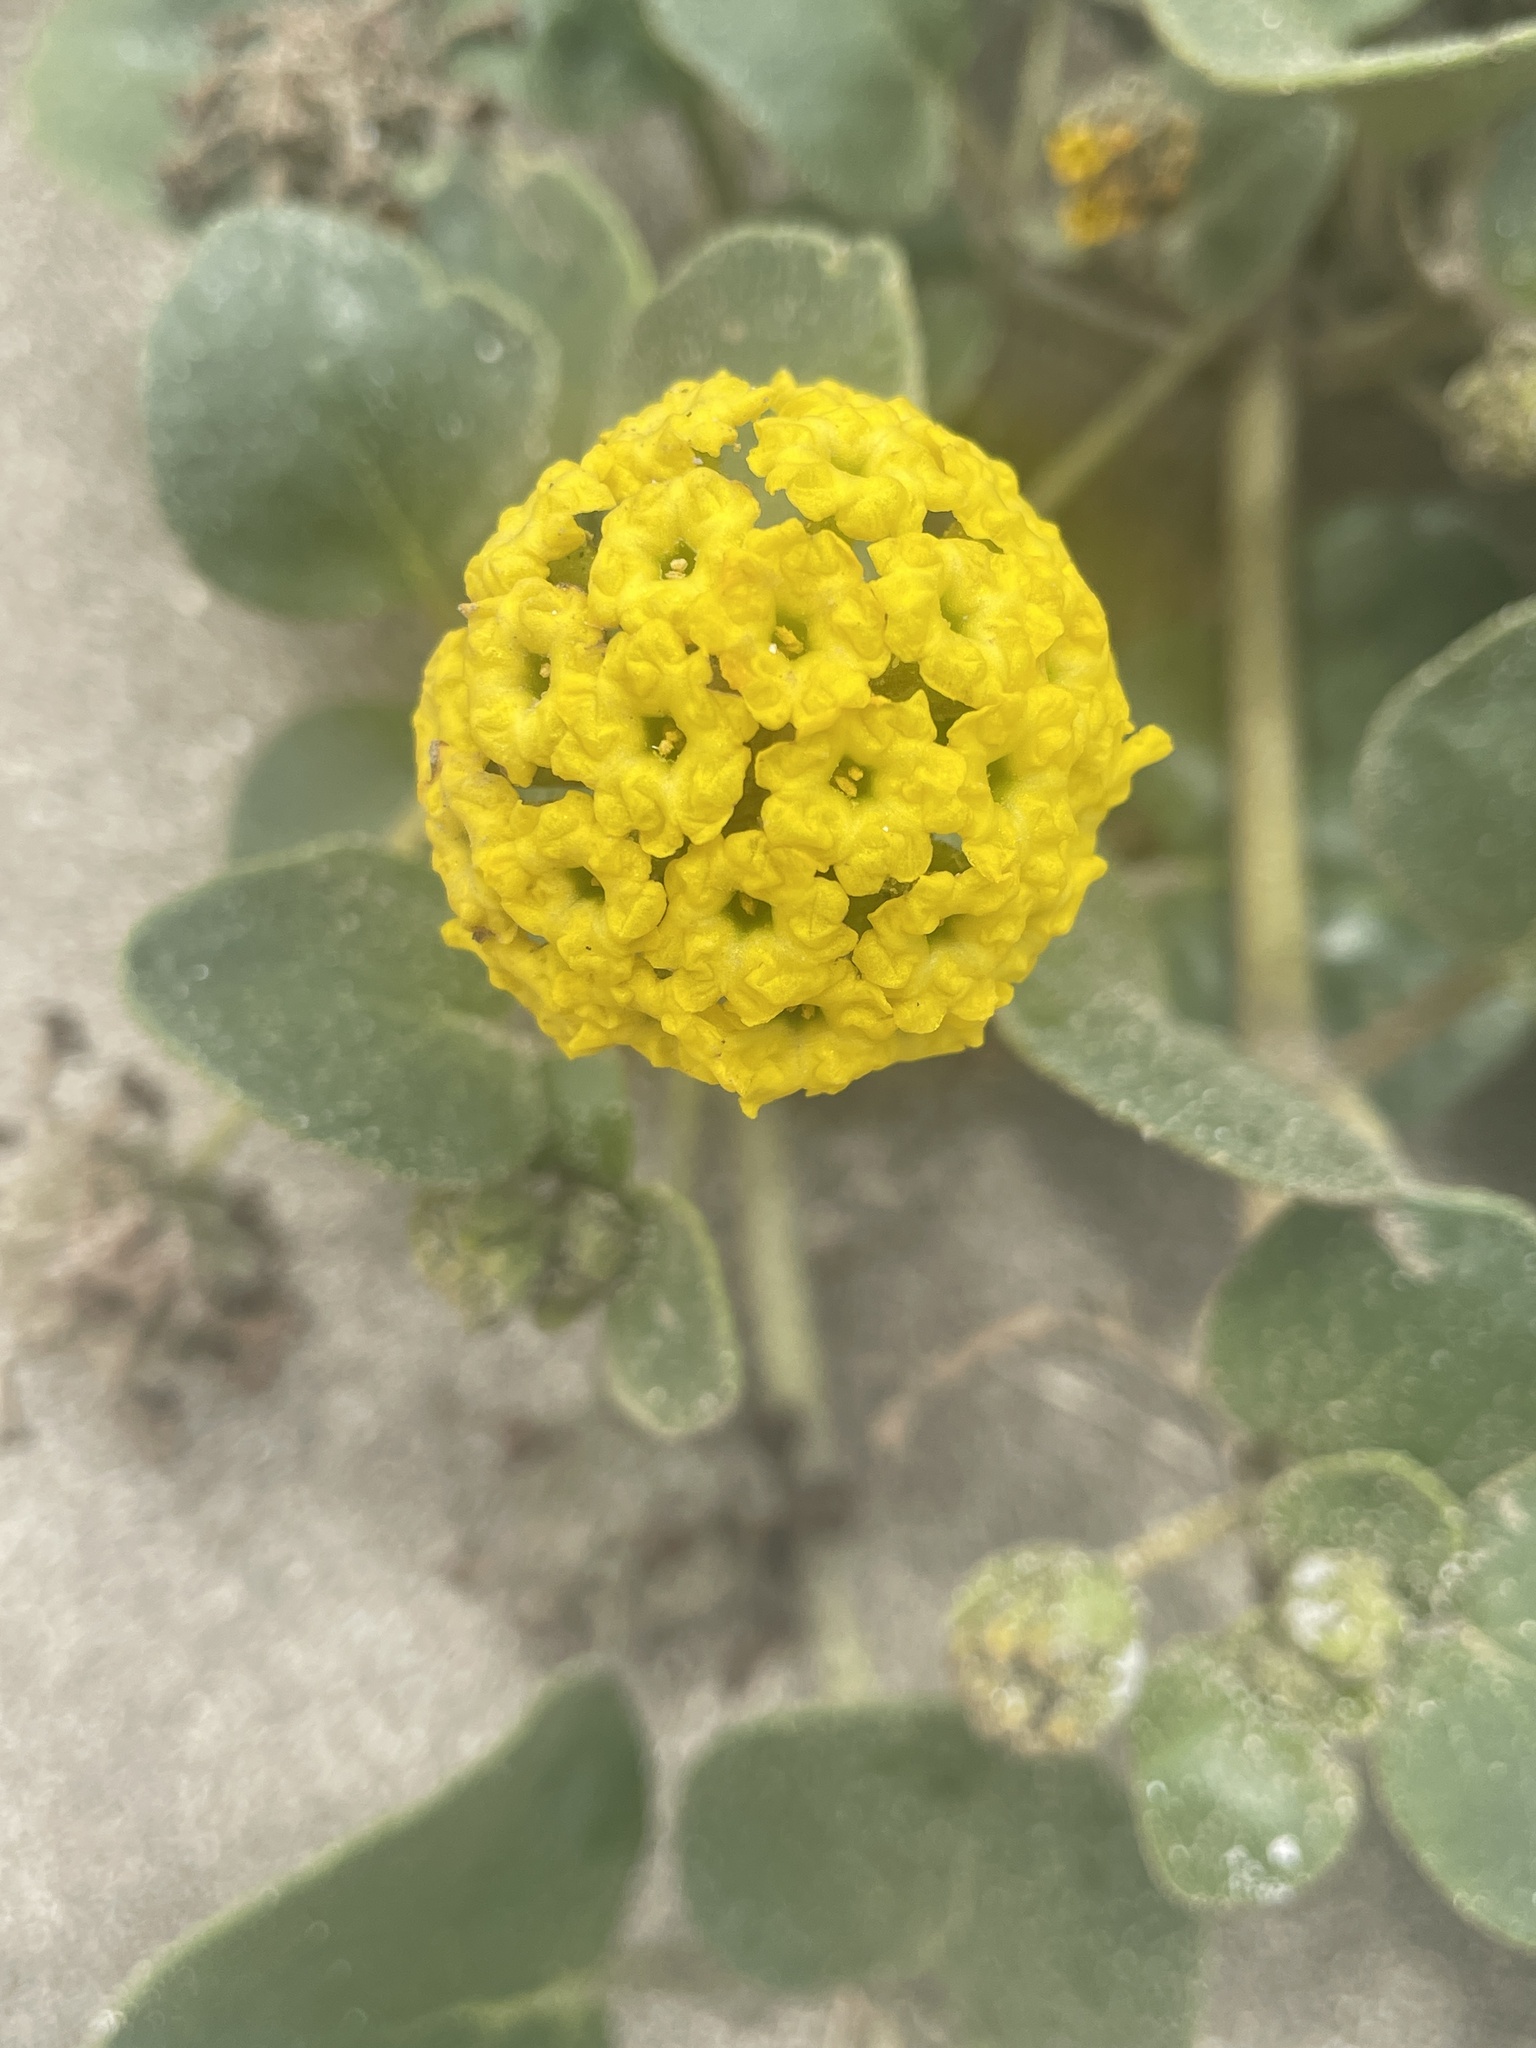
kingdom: Plantae
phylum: Tracheophyta
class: Magnoliopsida
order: Caryophyllales
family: Nyctaginaceae
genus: Abronia
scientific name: Abronia latifolia
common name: Yellow sand-verbena
